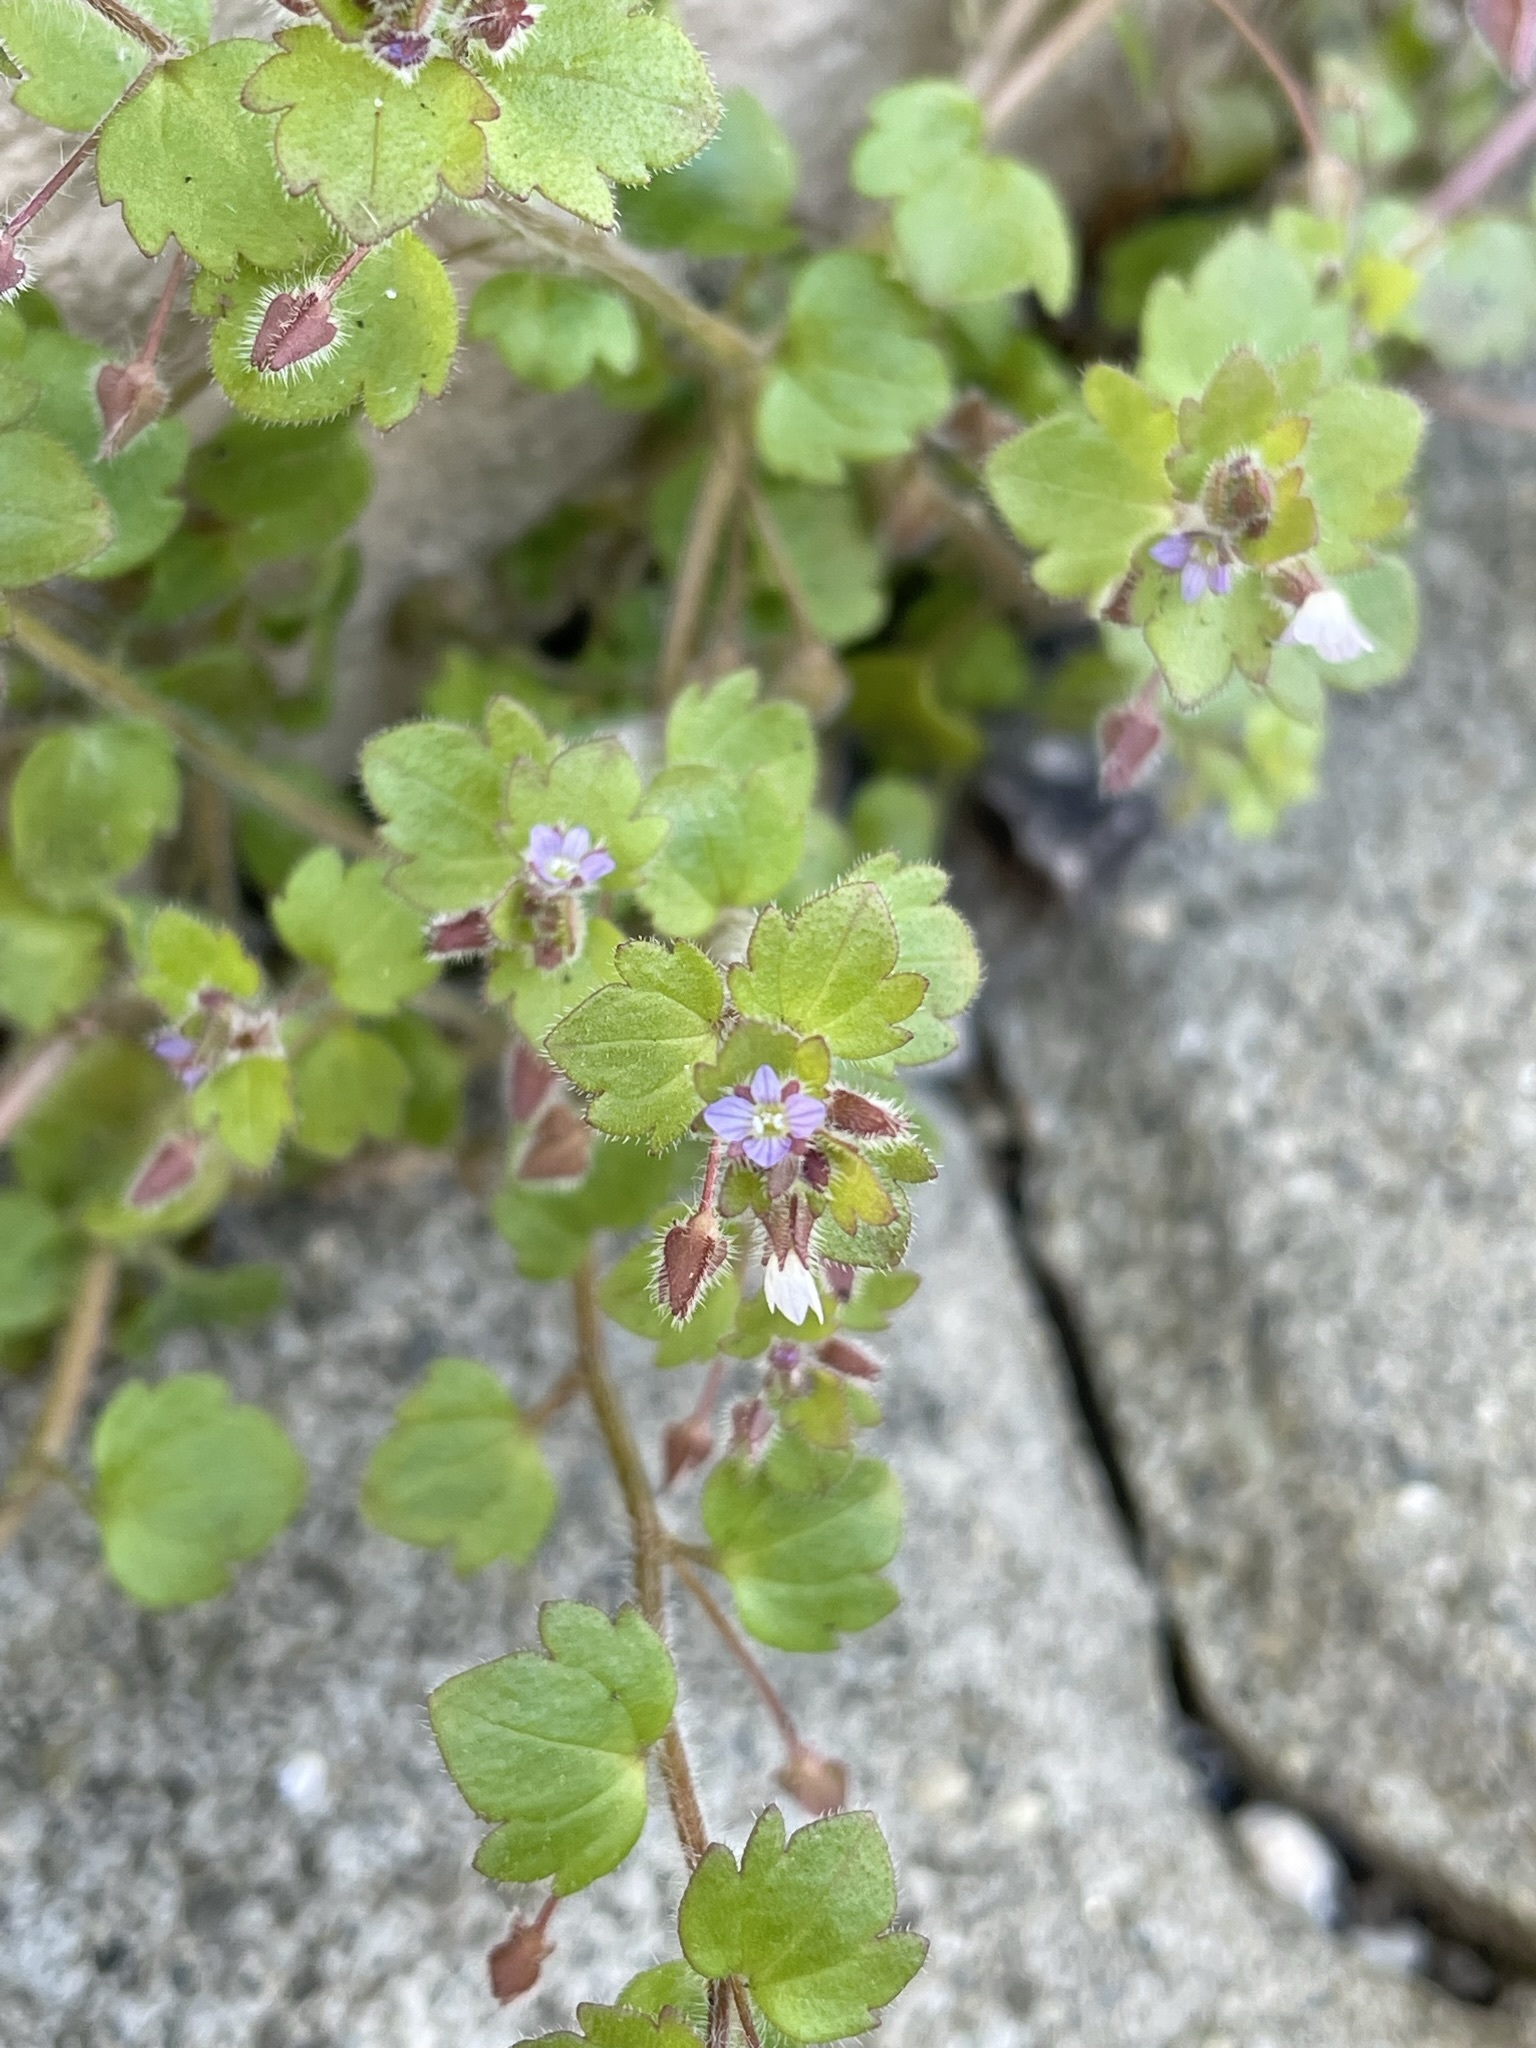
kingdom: Plantae
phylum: Tracheophyta
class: Magnoliopsida
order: Lamiales
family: Plantaginaceae
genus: Veronica
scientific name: Veronica sublobata
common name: False ivy-leaved speedwell
